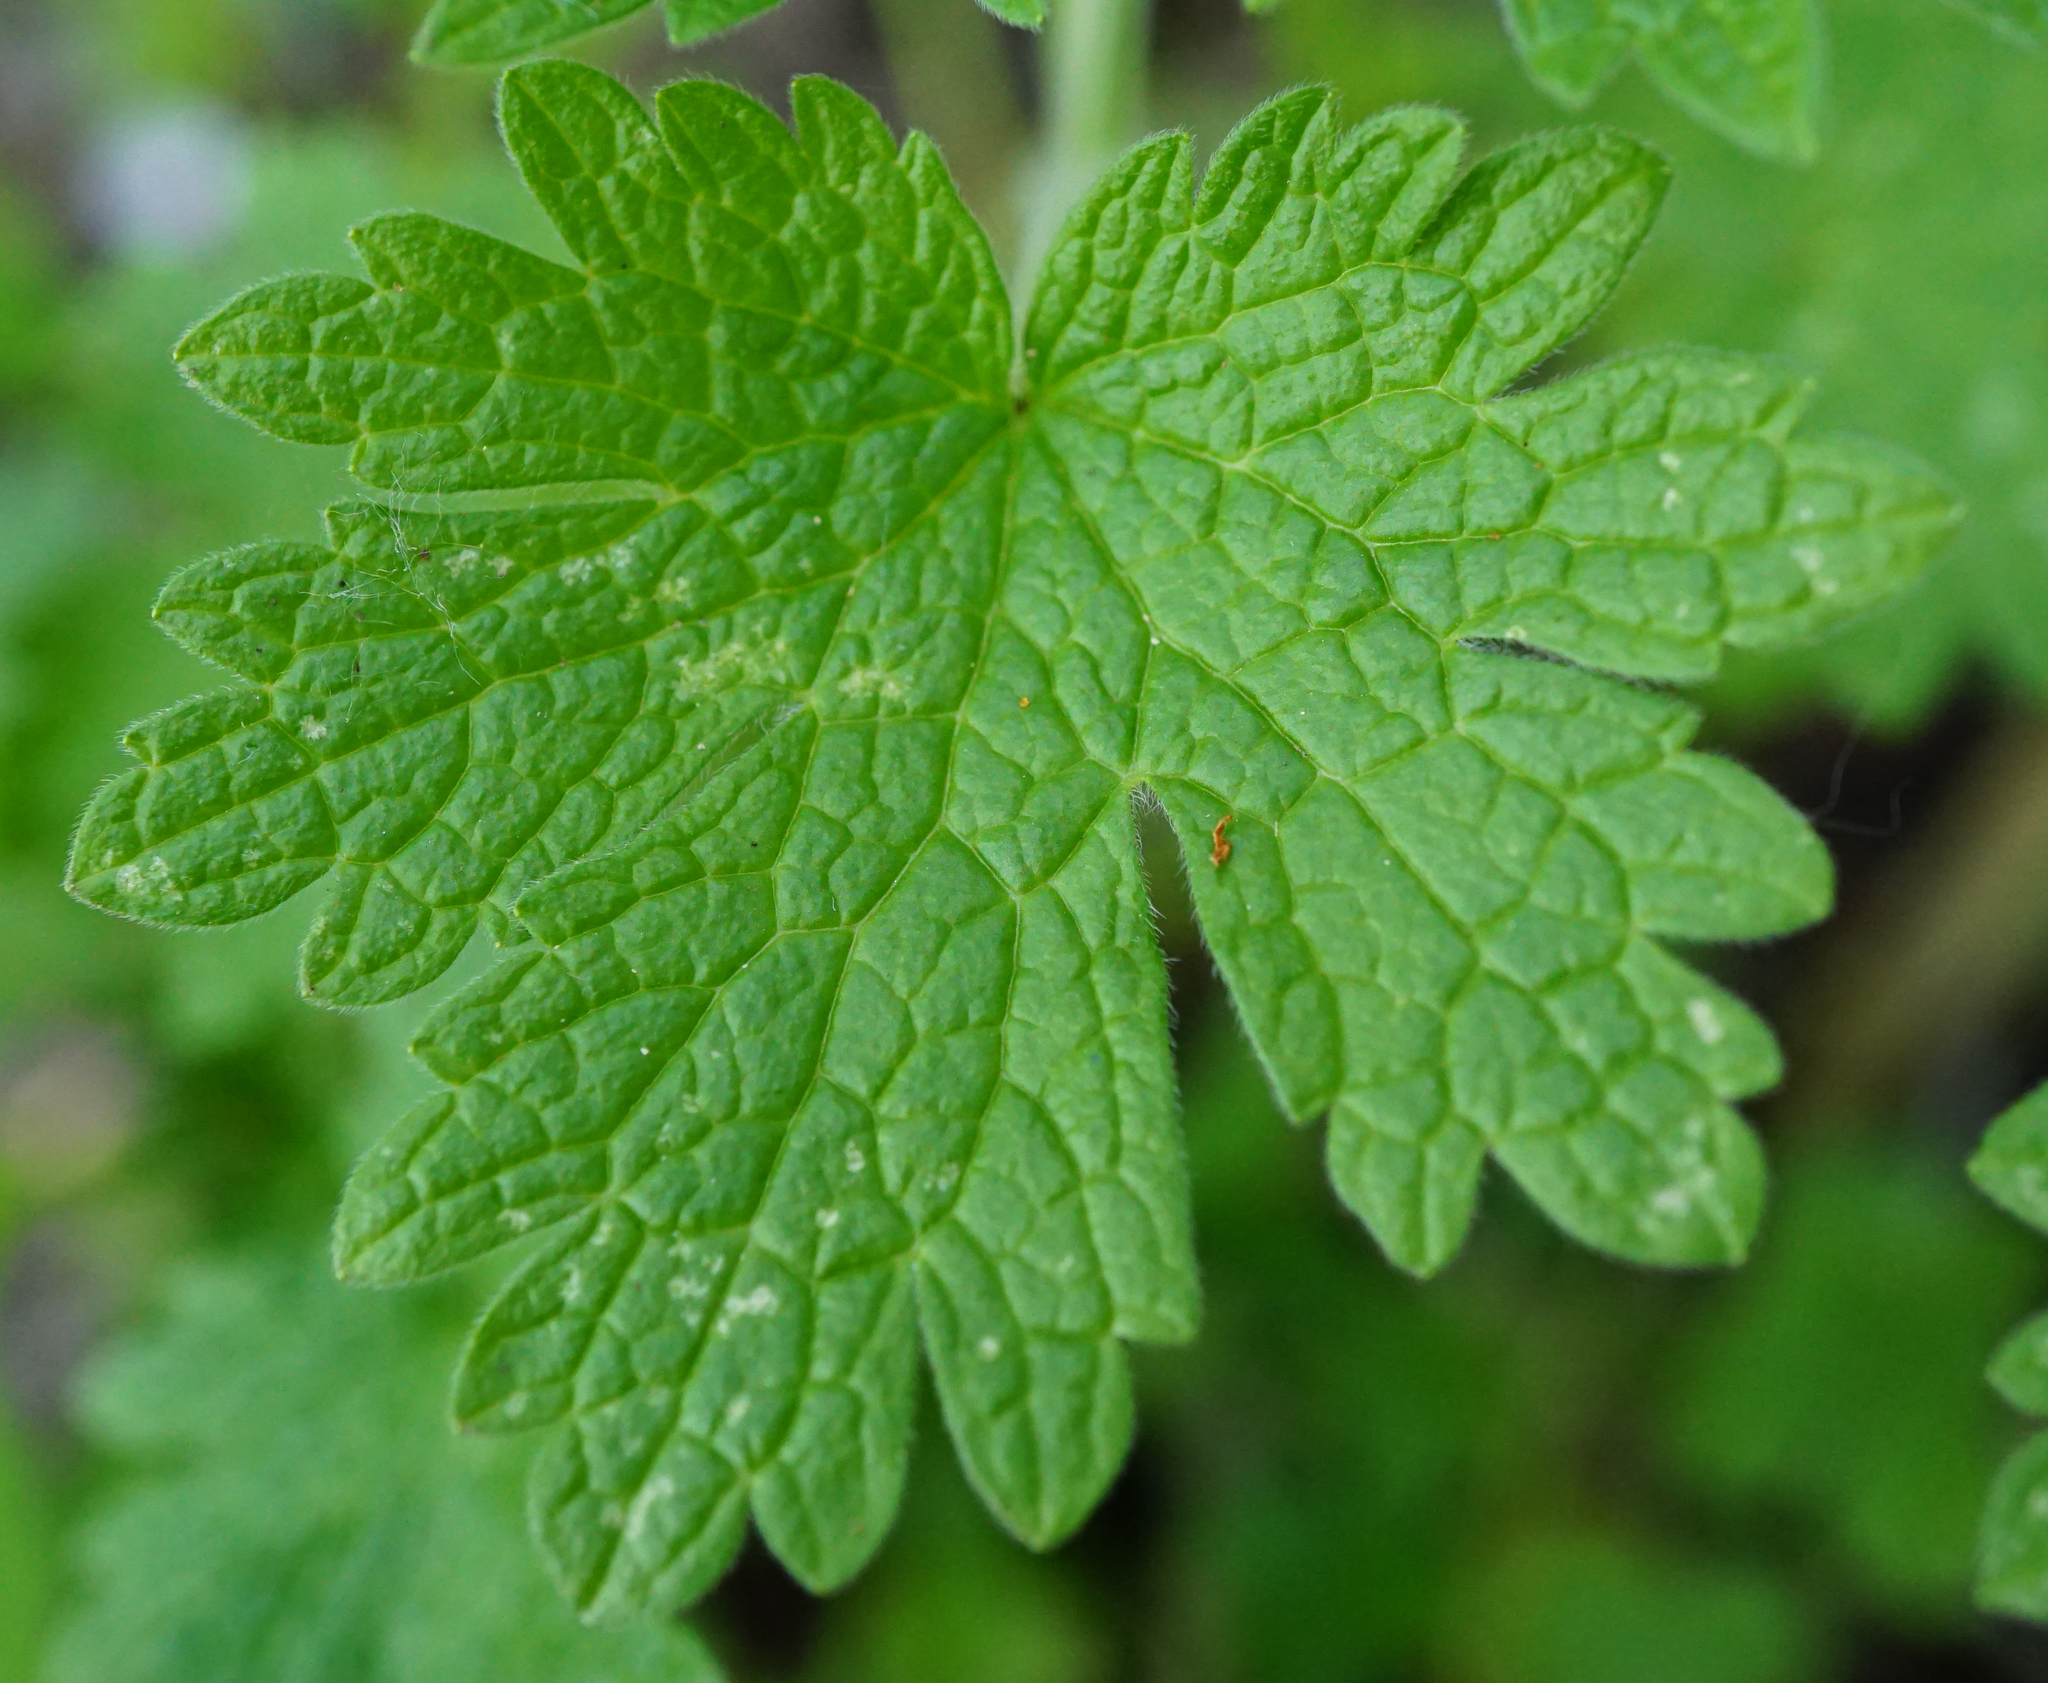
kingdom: Plantae
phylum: Tracheophyta
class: Magnoliopsida
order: Lamiales
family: Lamiaceae
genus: Leonurus
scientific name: Leonurus cardiaca
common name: Motherwort
